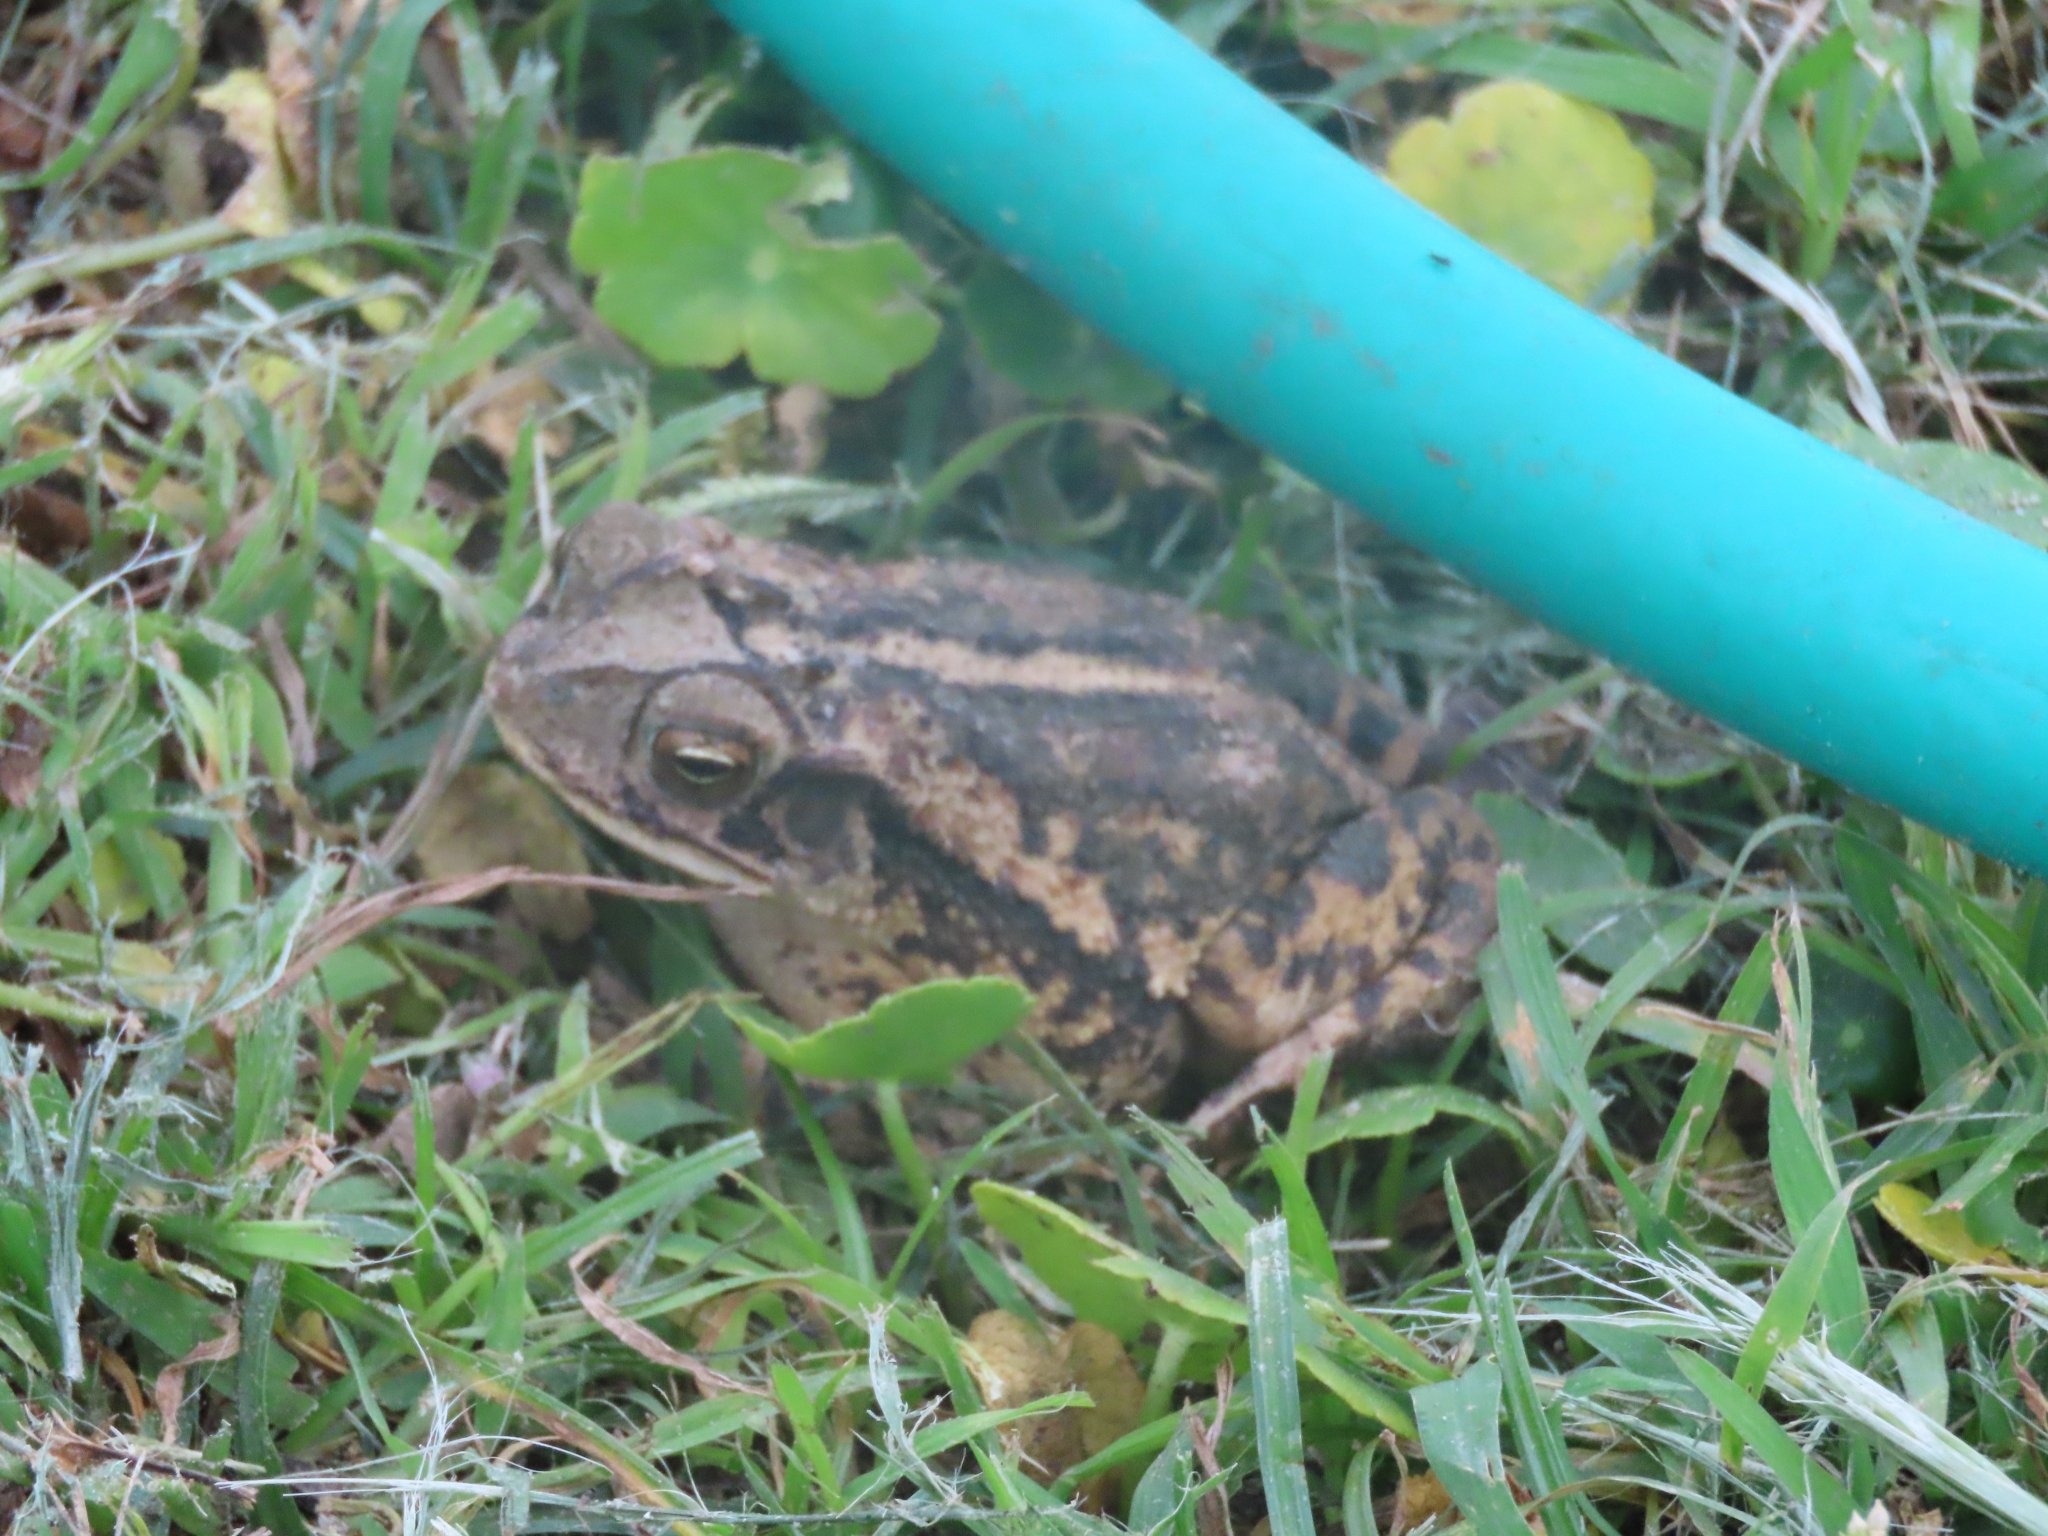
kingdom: Animalia
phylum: Chordata
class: Amphibia
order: Anura
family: Bufonidae
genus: Incilius
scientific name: Incilius nebulifer
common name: Gulf coast toad
